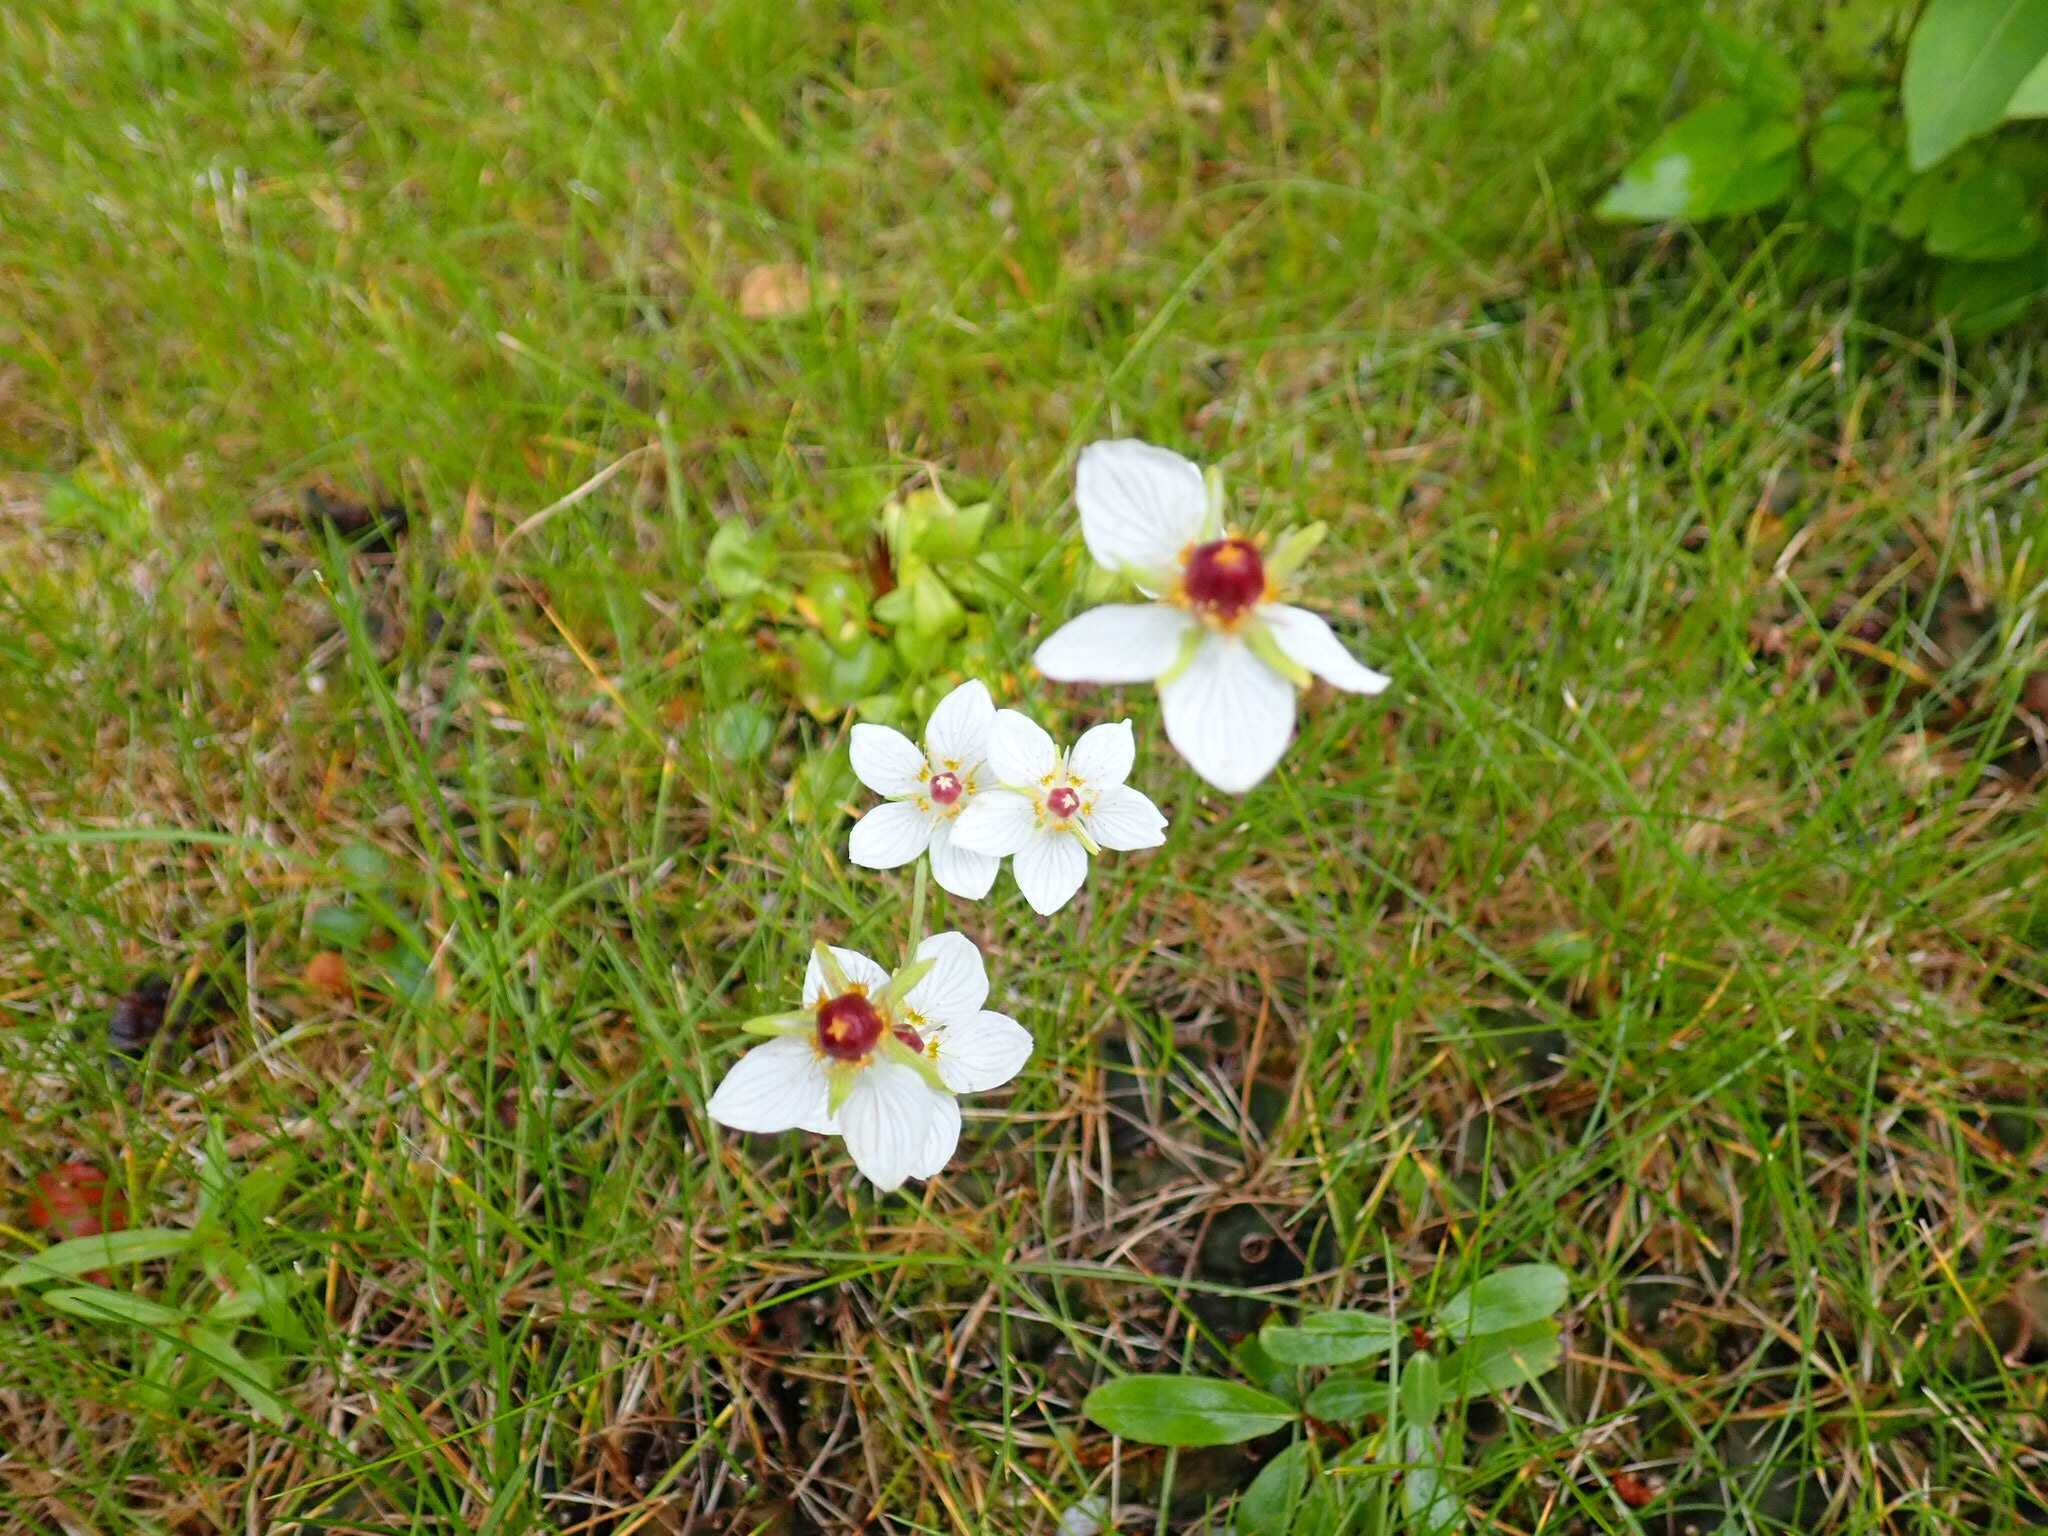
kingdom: Plantae
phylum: Tracheophyta
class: Magnoliopsida
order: Celastrales
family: Parnassiaceae
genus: Parnassia
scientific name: Parnassia palustris
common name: Grass-of-parnassus
